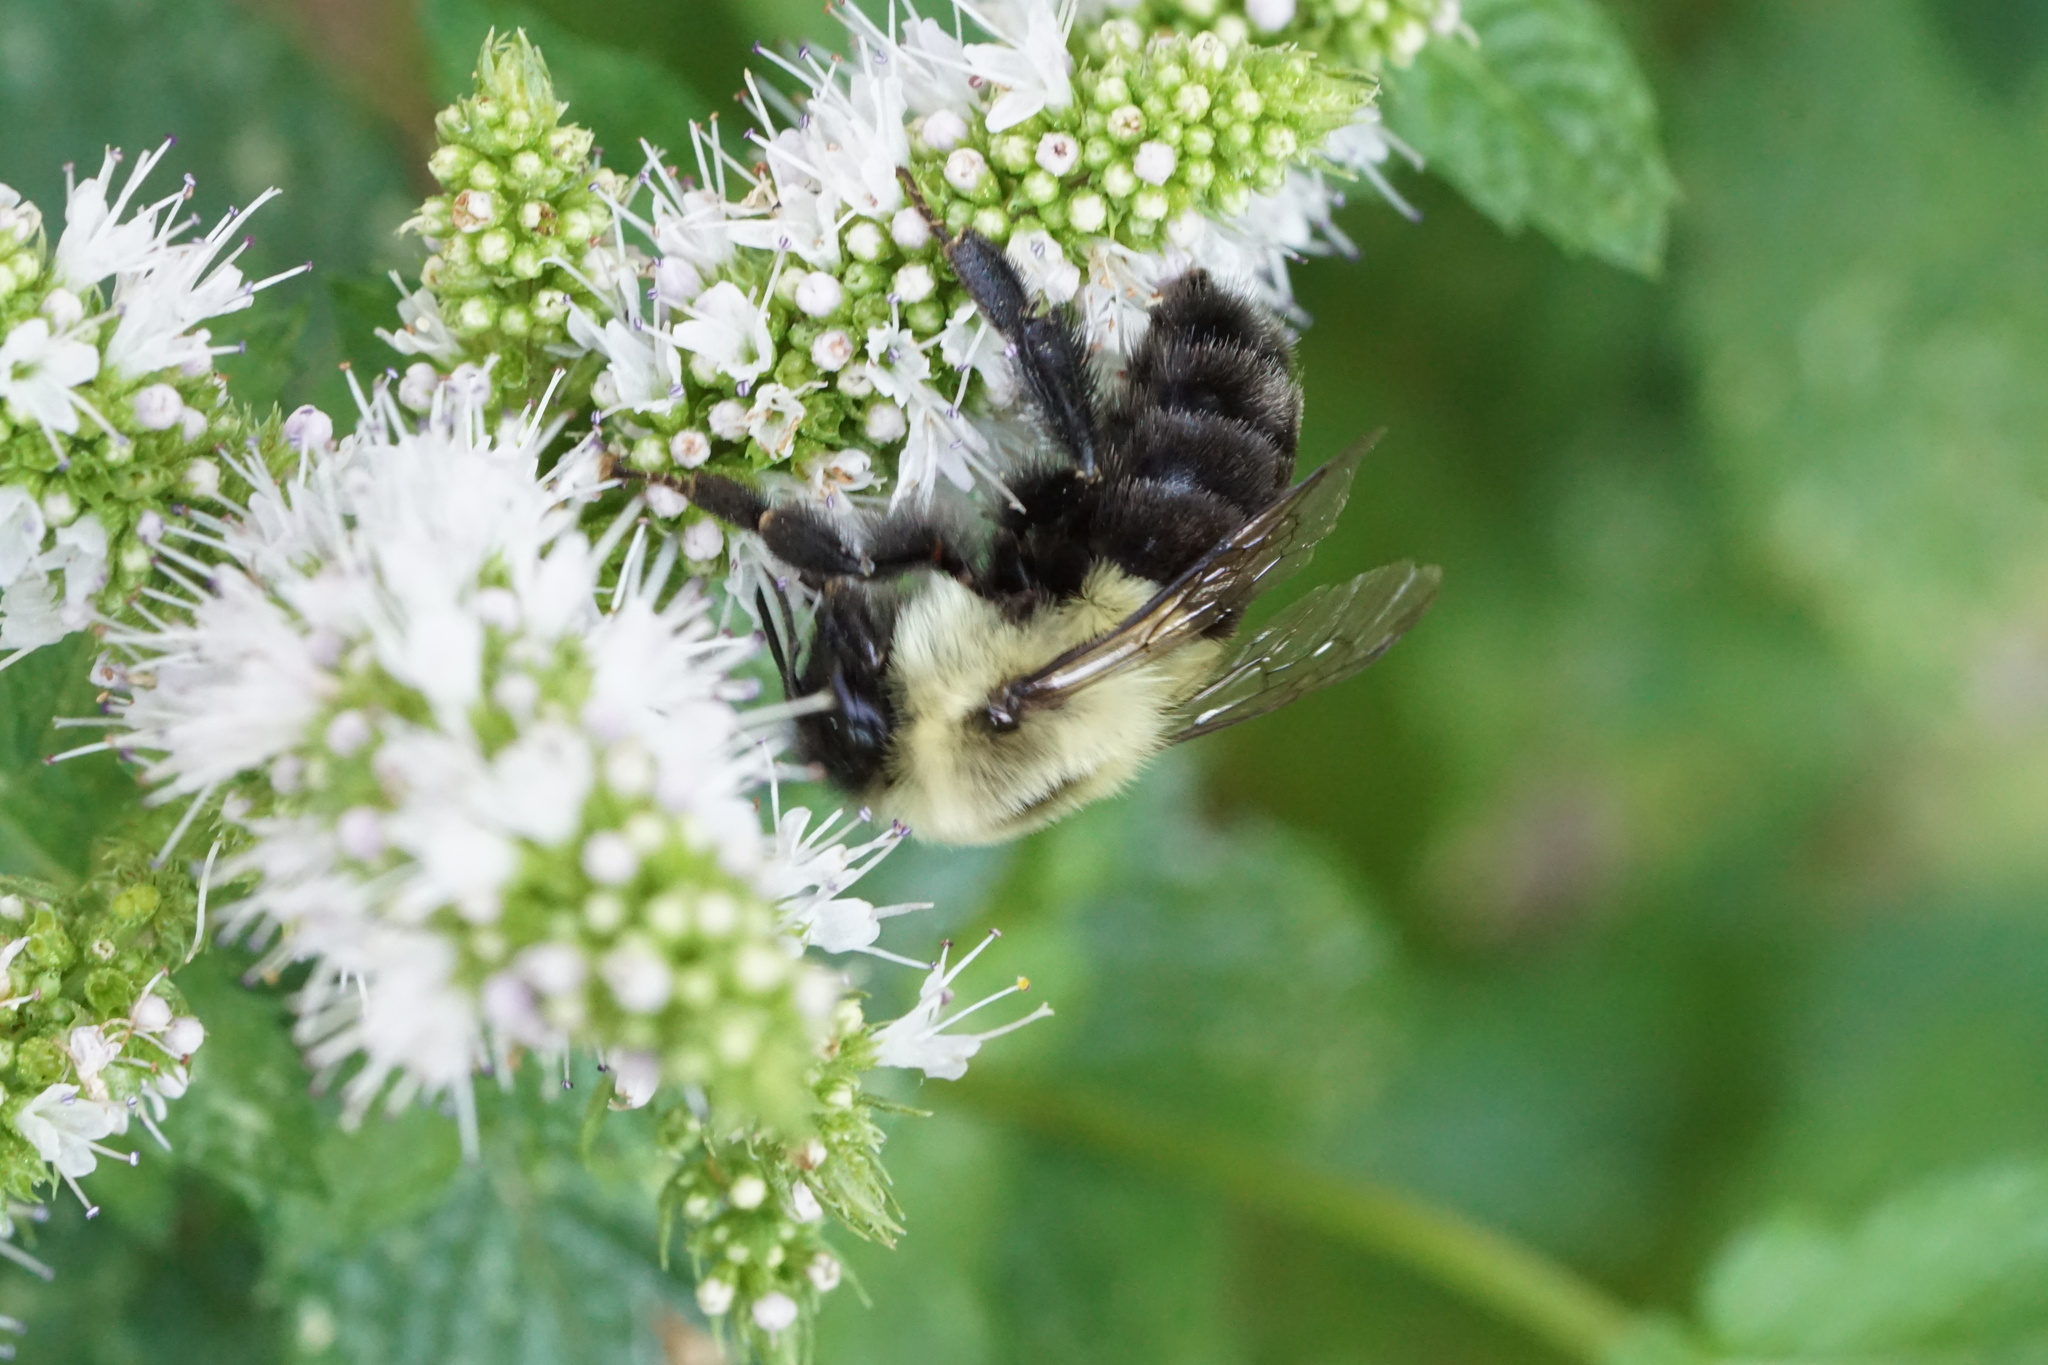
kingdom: Animalia
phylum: Arthropoda
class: Insecta
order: Hymenoptera
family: Apidae
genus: Bombus
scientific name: Bombus impatiens
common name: Common eastern bumble bee
